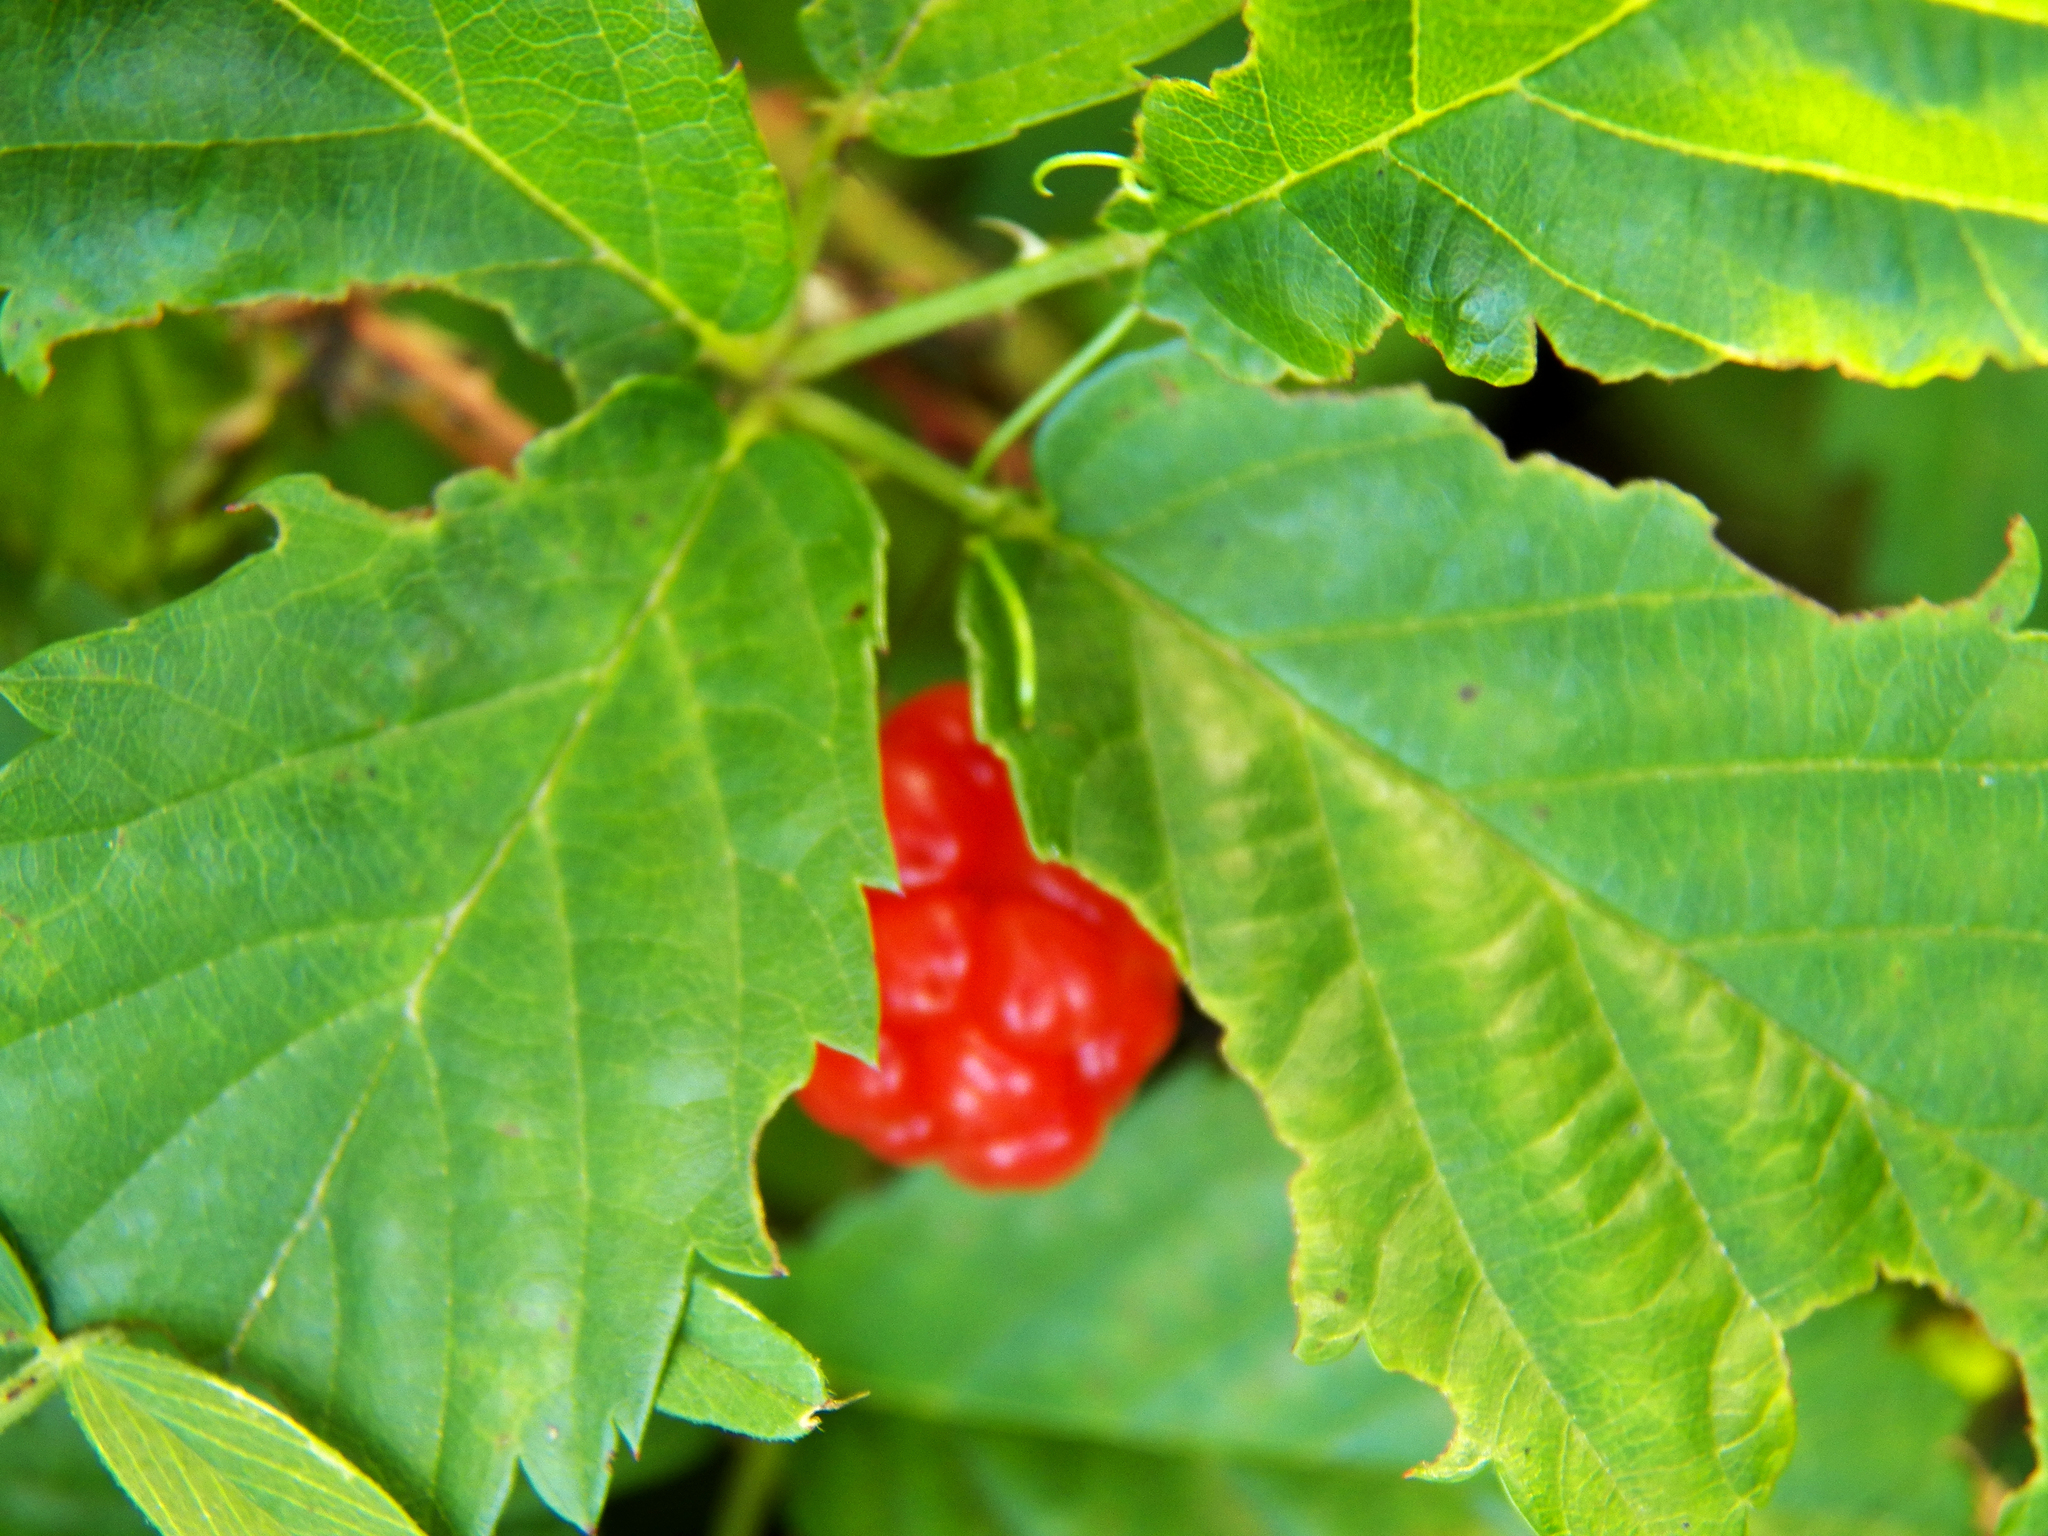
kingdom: Plantae
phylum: Tracheophyta
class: Magnoliopsida
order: Rosales
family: Rosaceae
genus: Rubus
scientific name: Rubus trivialis
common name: Southern dewberry
